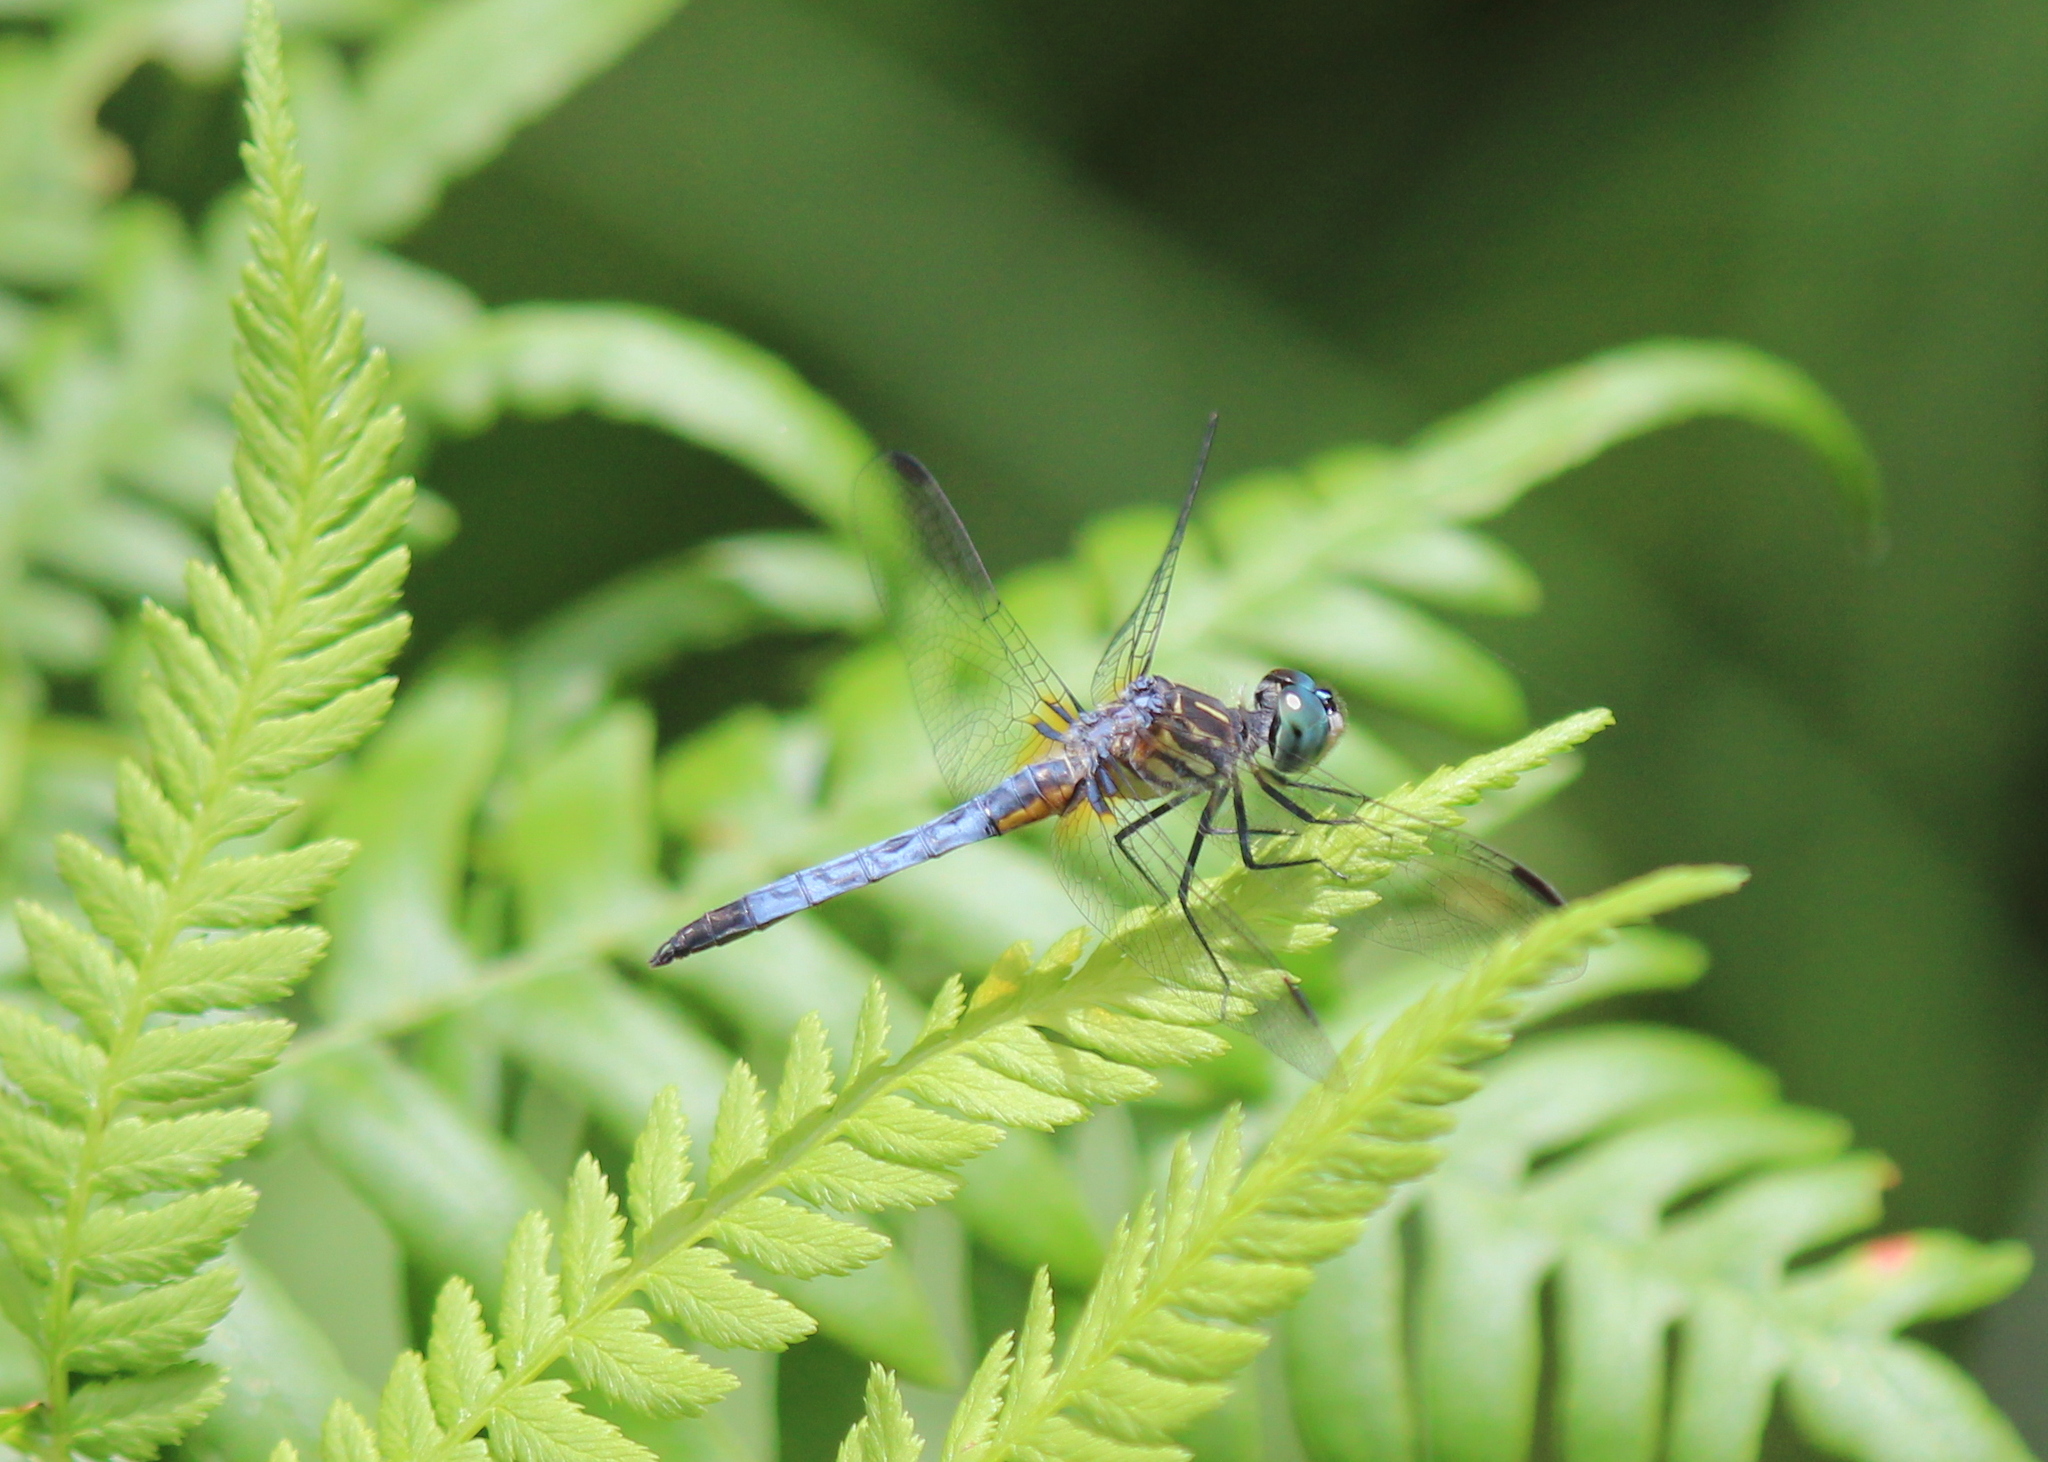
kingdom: Animalia
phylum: Arthropoda
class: Insecta
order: Odonata
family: Libellulidae
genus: Pachydiplax
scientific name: Pachydiplax longipennis
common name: Blue dasher
